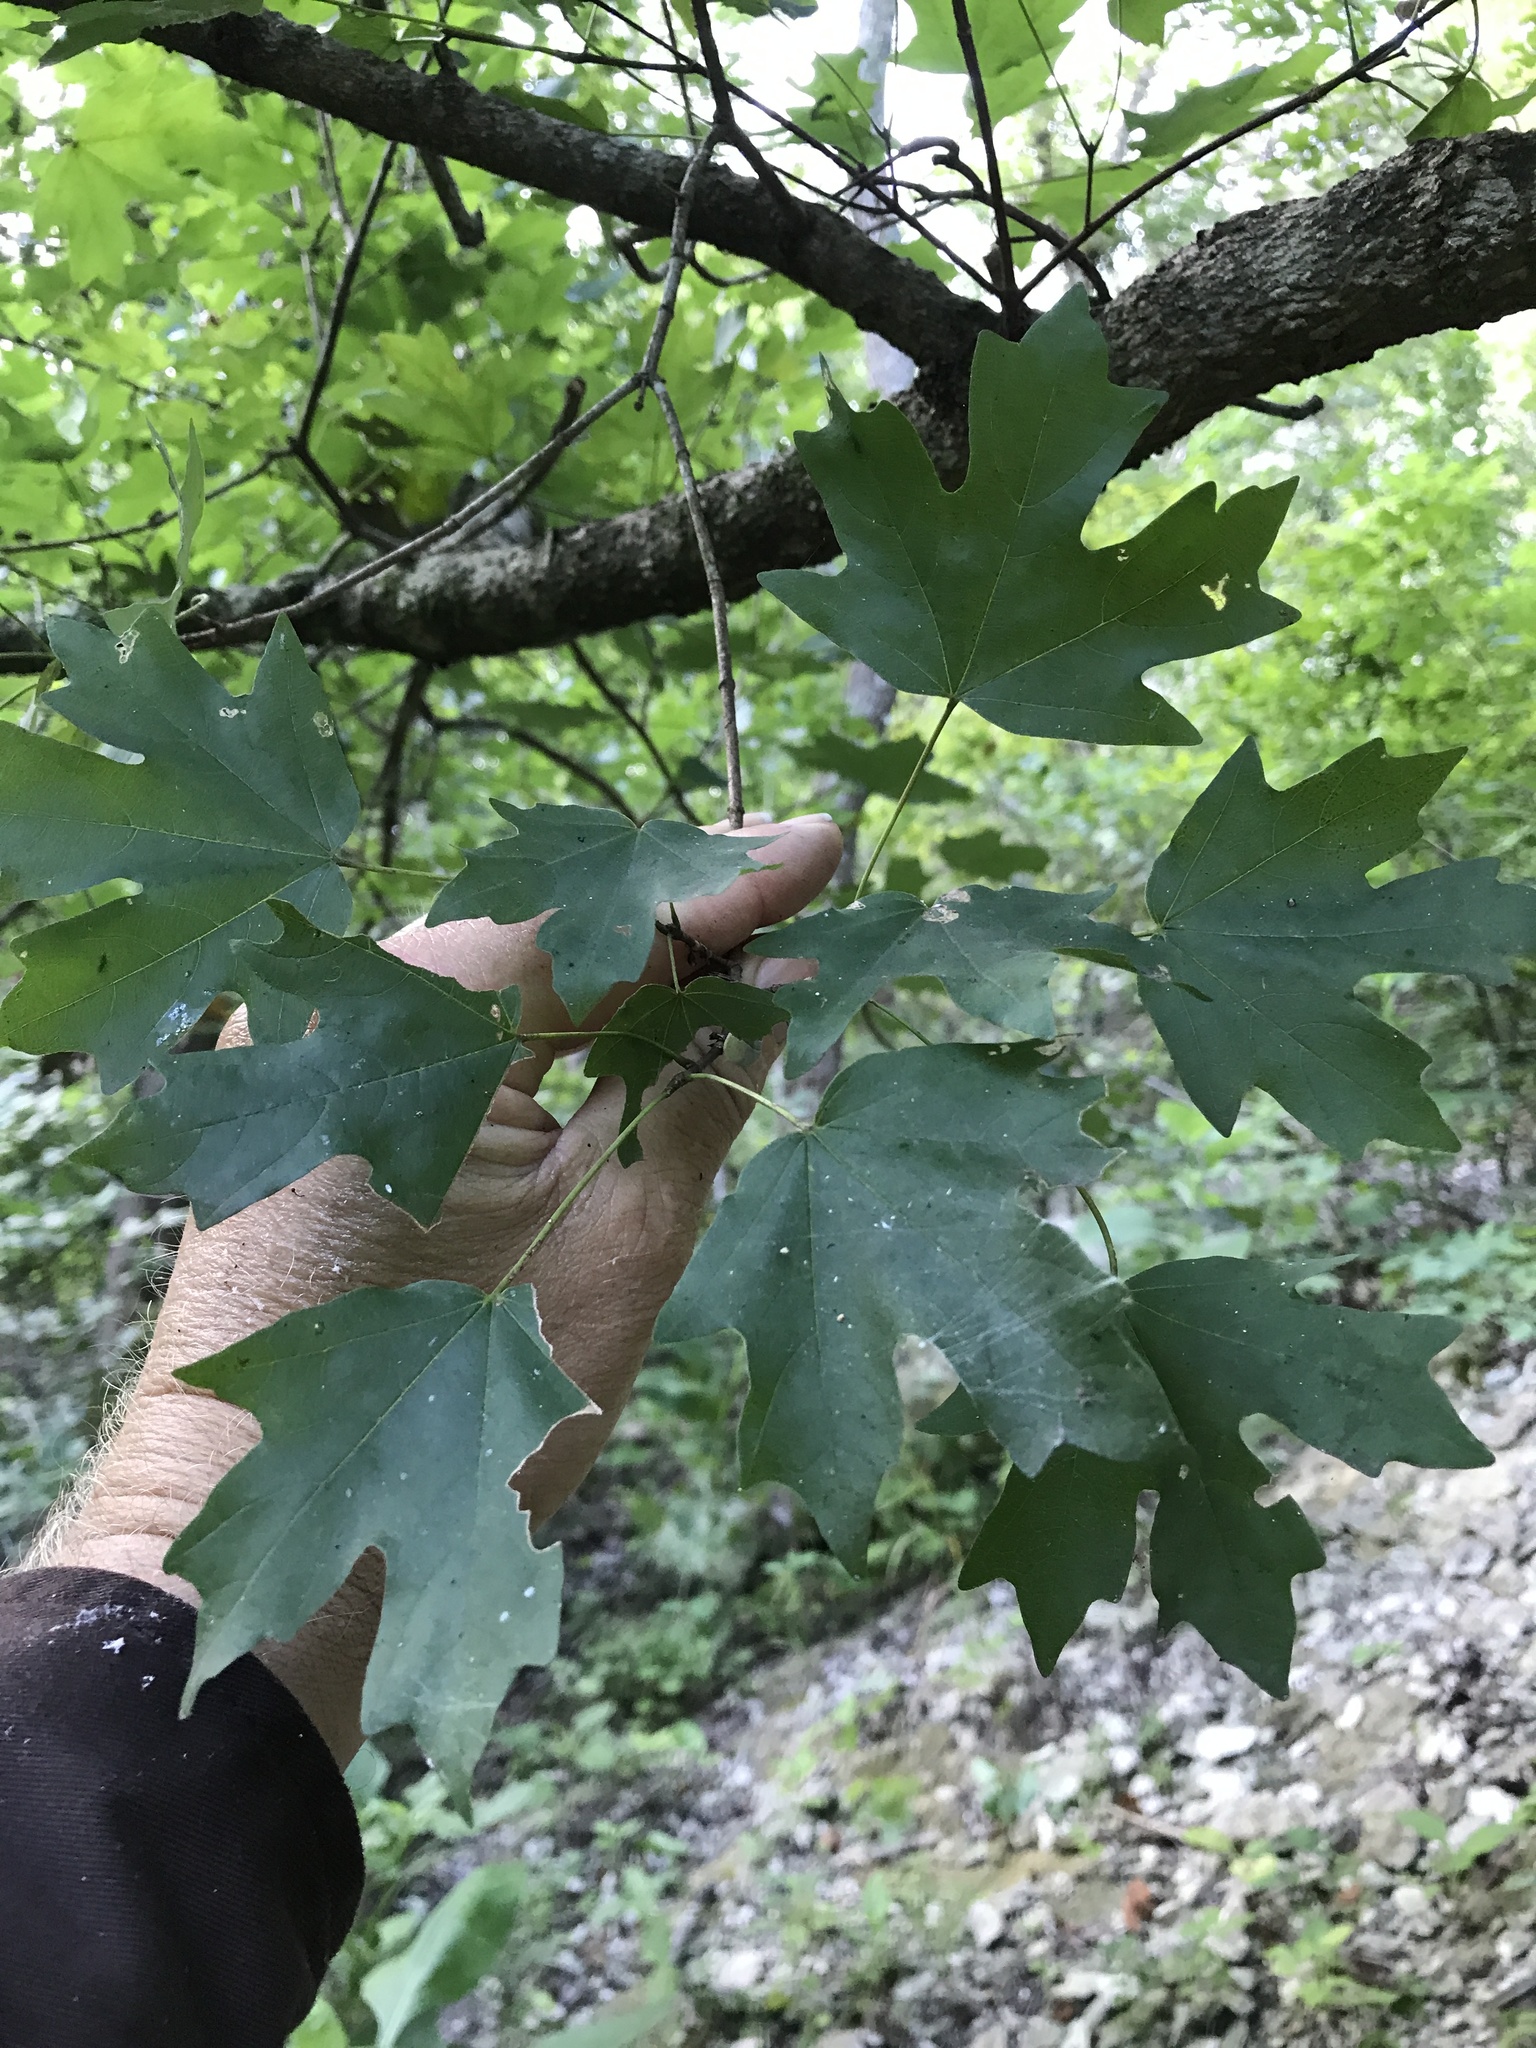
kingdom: Plantae
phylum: Tracheophyta
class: Magnoliopsida
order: Sapindales
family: Sapindaceae
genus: Acer
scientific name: Acer grandidentatum
